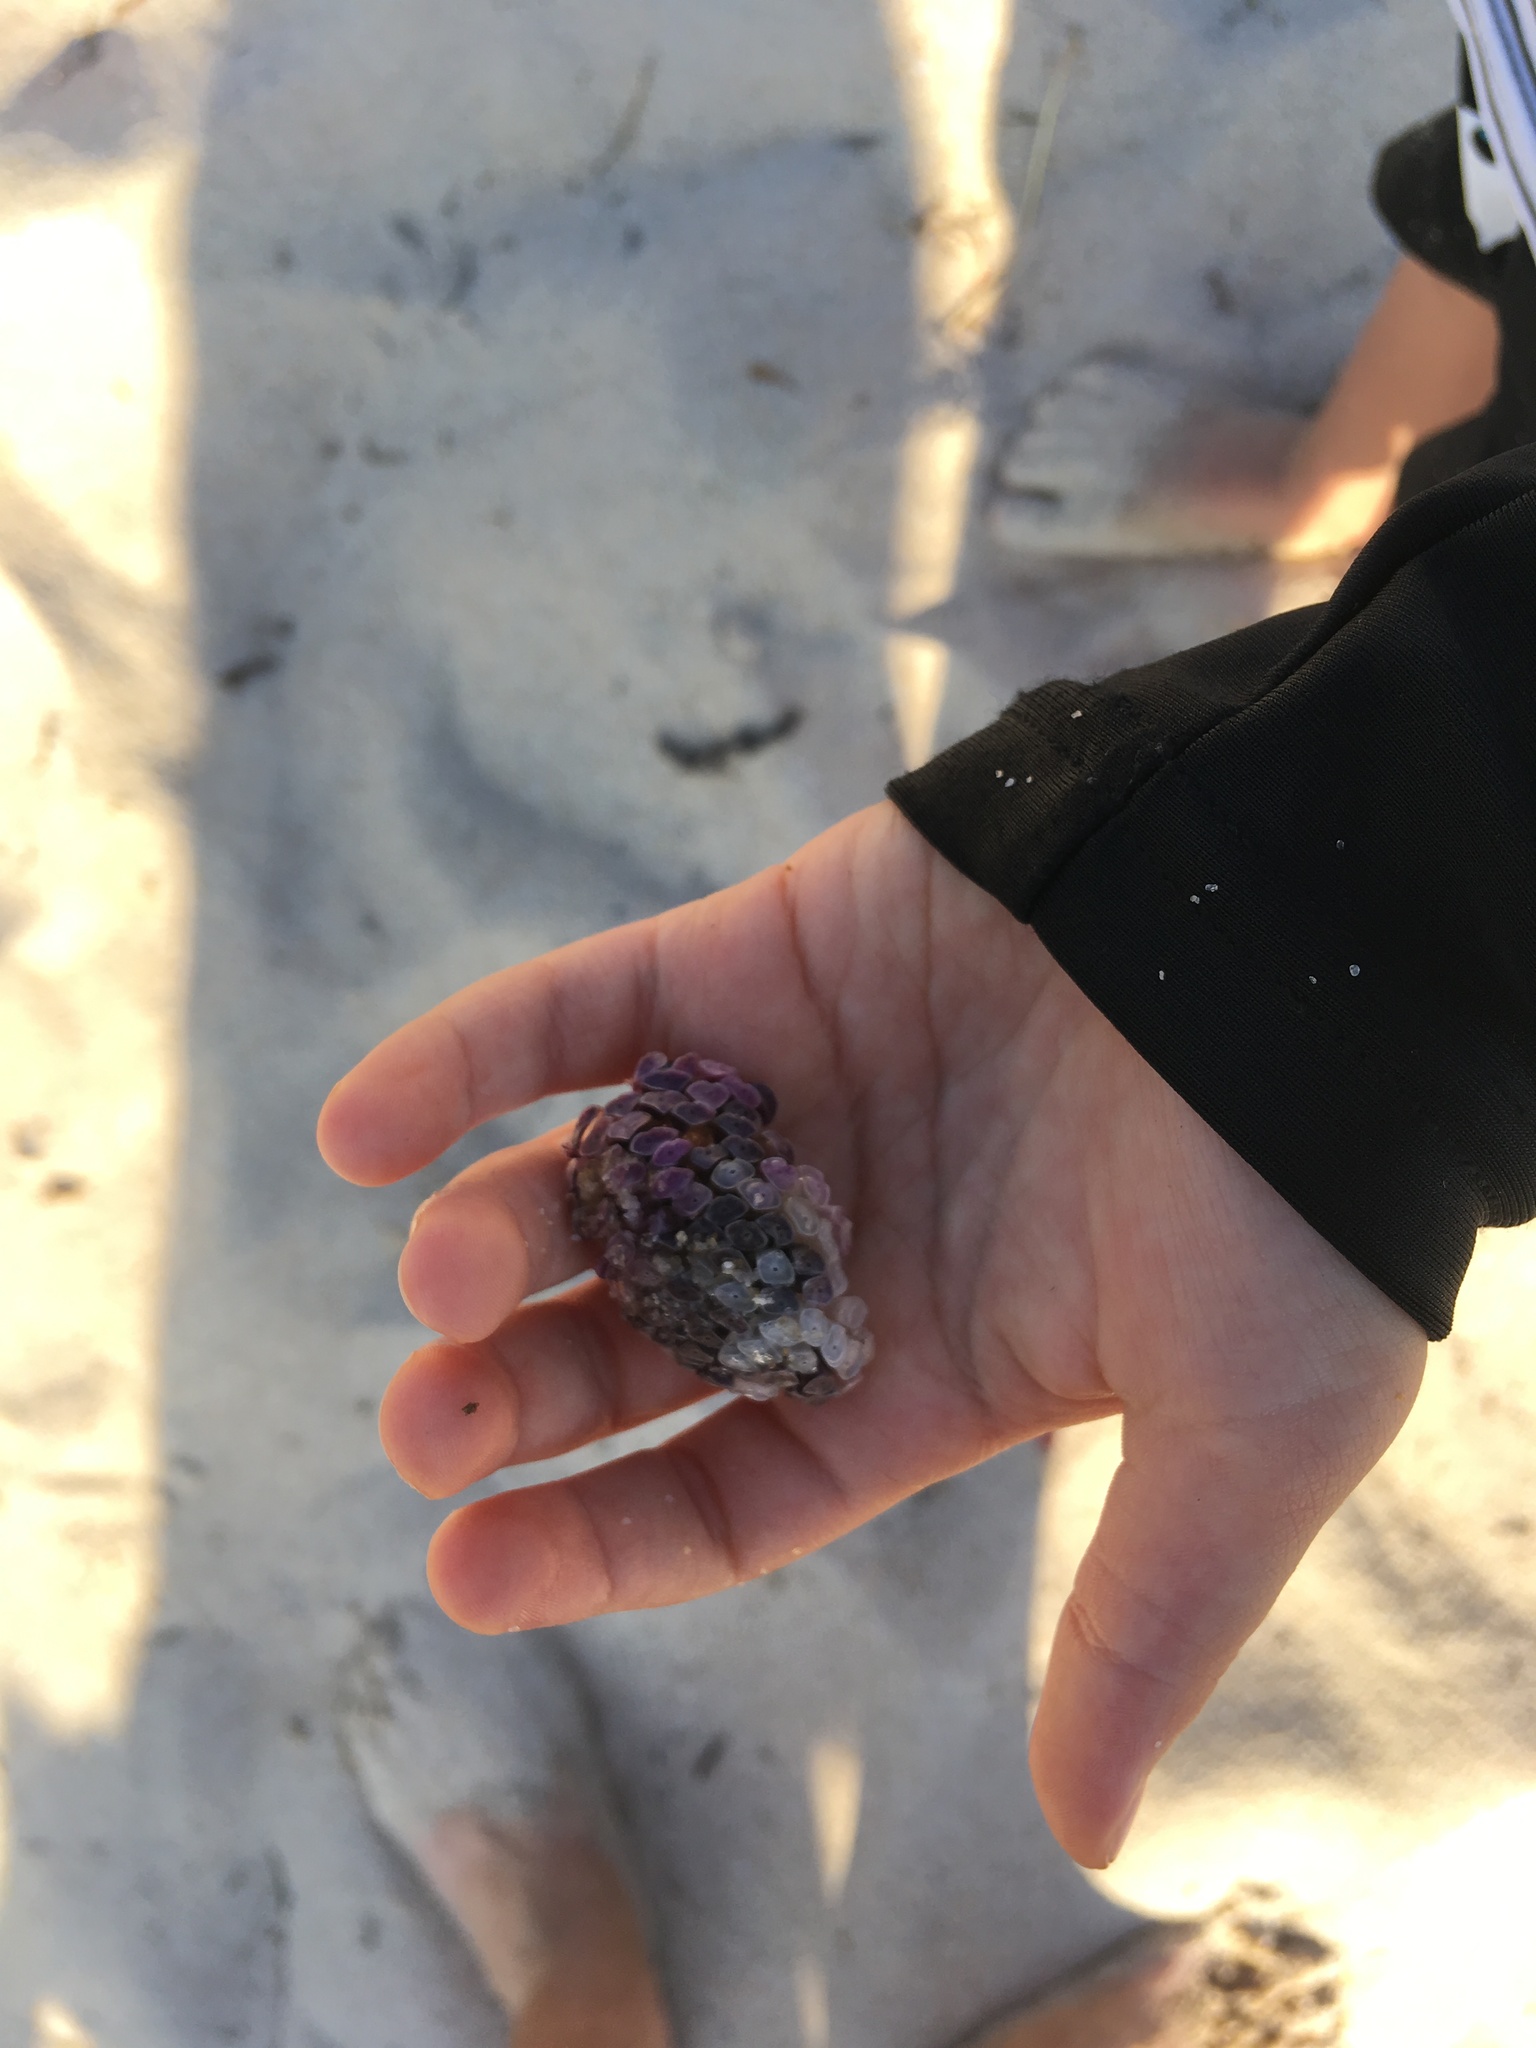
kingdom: Animalia
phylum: Mollusca
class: Gastropoda
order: Neogastropoda
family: Muricidae
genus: Dicathais
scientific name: Dicathais orbita
